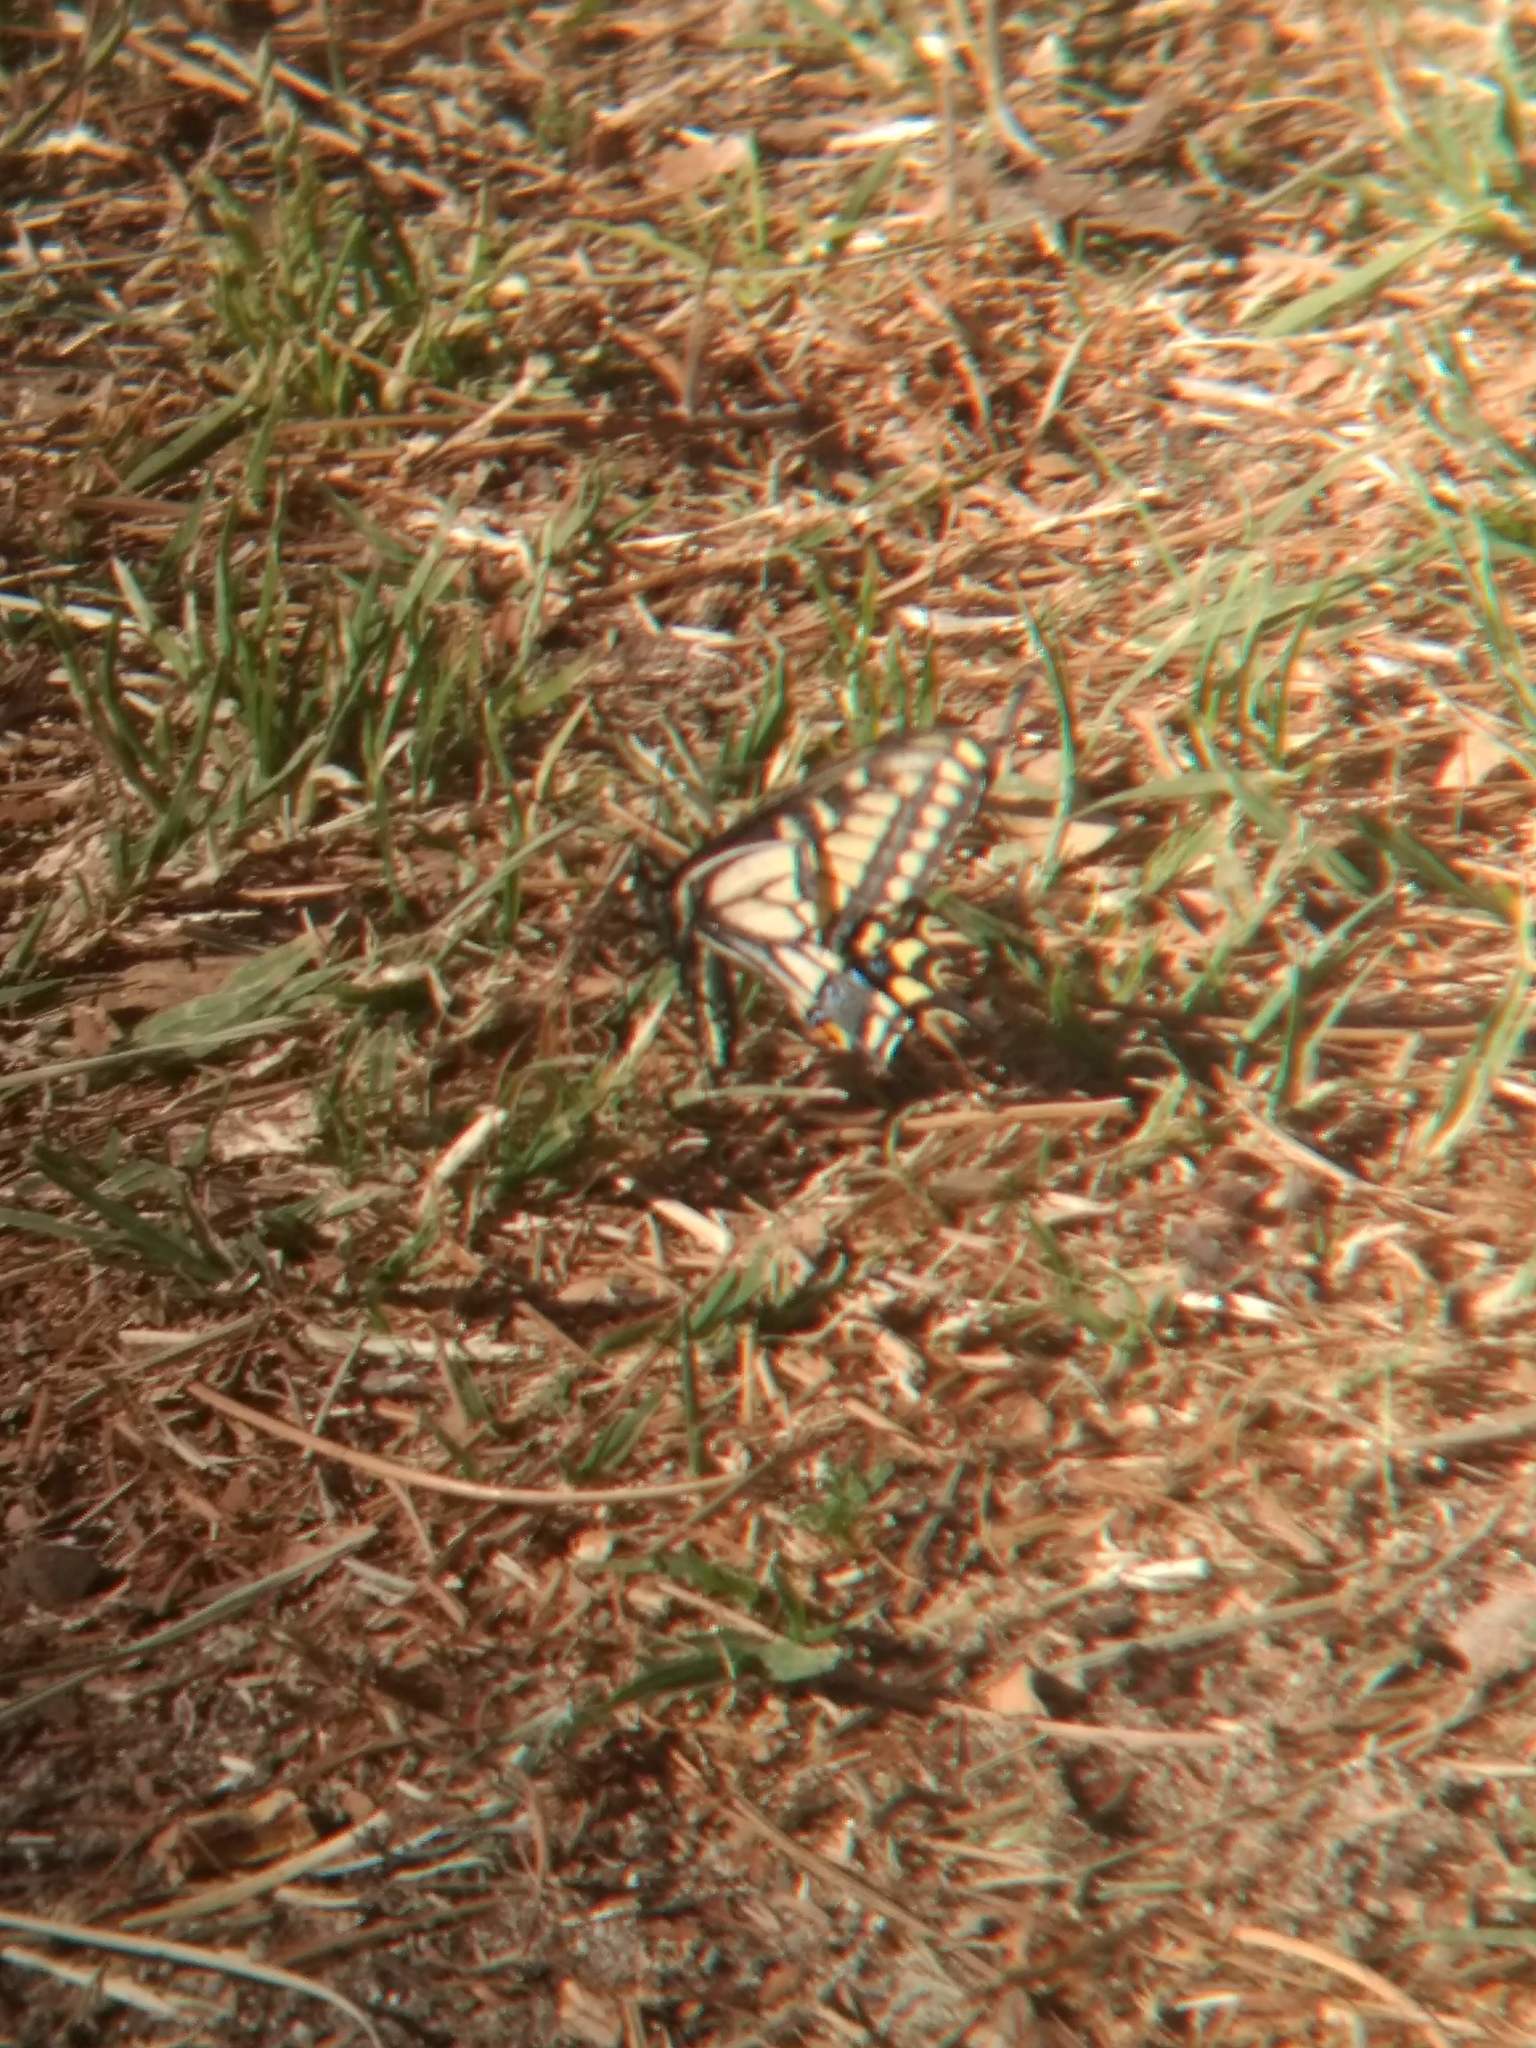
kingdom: Animalia
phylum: Arthropoda
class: Insecta
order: Lepidoptera
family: Papilionidae
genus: Papilio
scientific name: Papilio zelicaon
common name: Anise swallowtail
